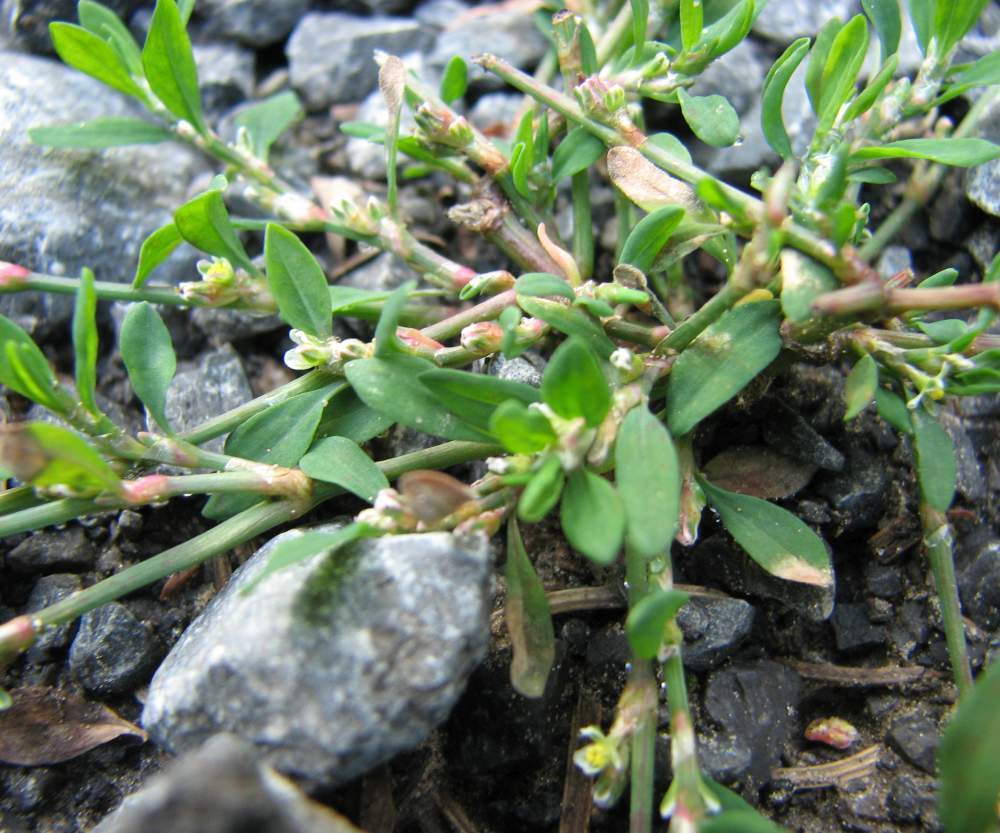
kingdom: Plantae
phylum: Tracheophyta
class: Magnoliopsida
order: Caryophyllales
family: Polygonaceae
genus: Polygonum
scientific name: Polygonum aviculare
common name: Prostrate knotweed
